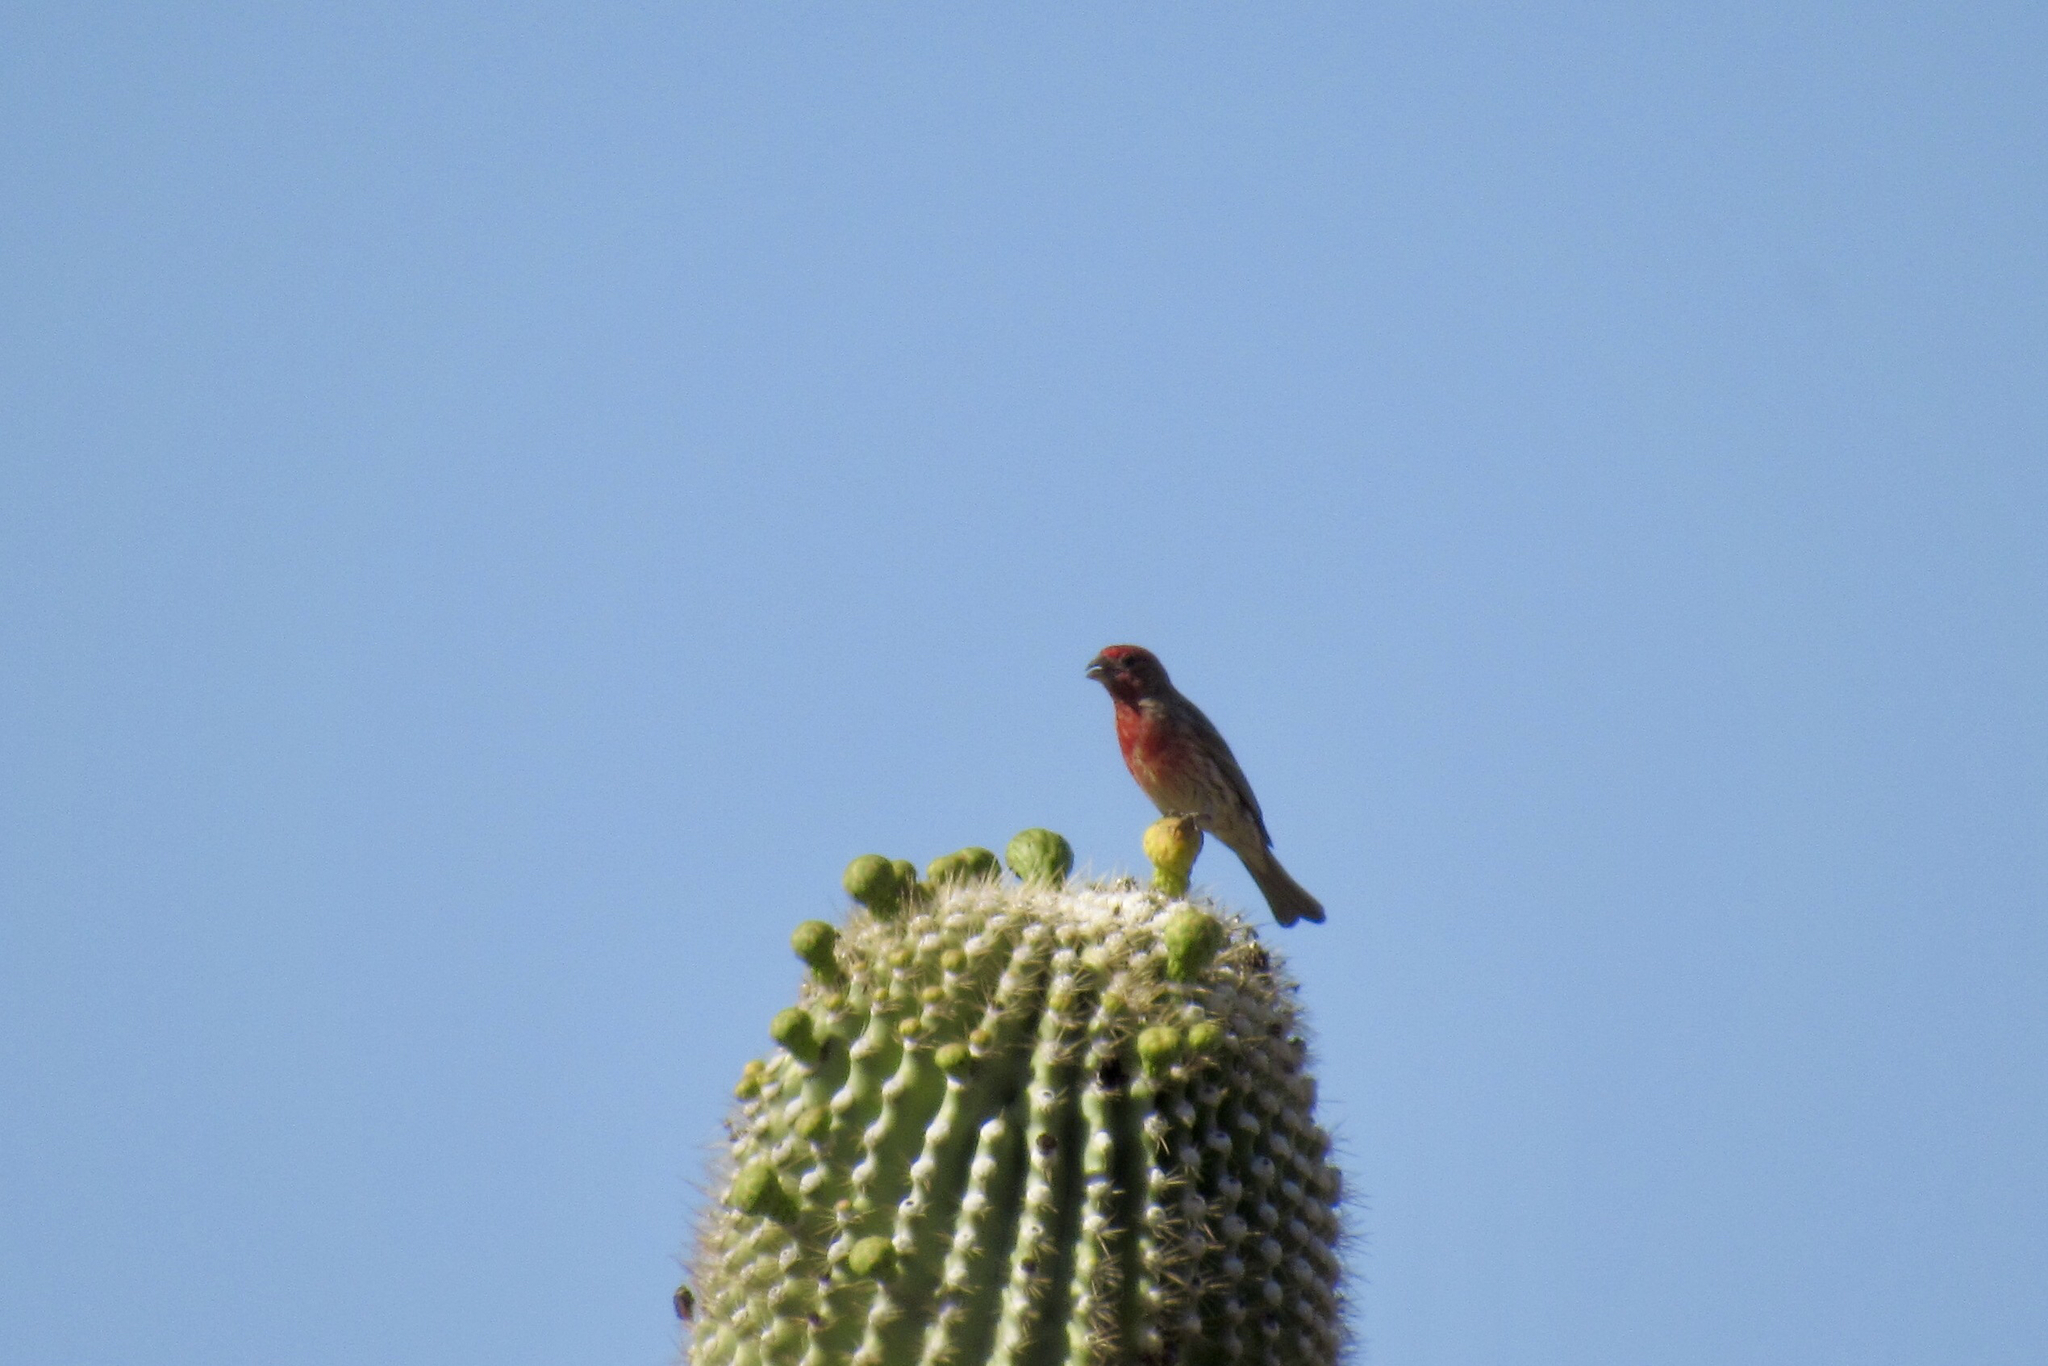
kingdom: Animalia
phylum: Chordata
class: Aves
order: Passeriformes
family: Fringillidae
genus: Haemorhous
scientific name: Haemorhous mexicanus
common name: House finch
